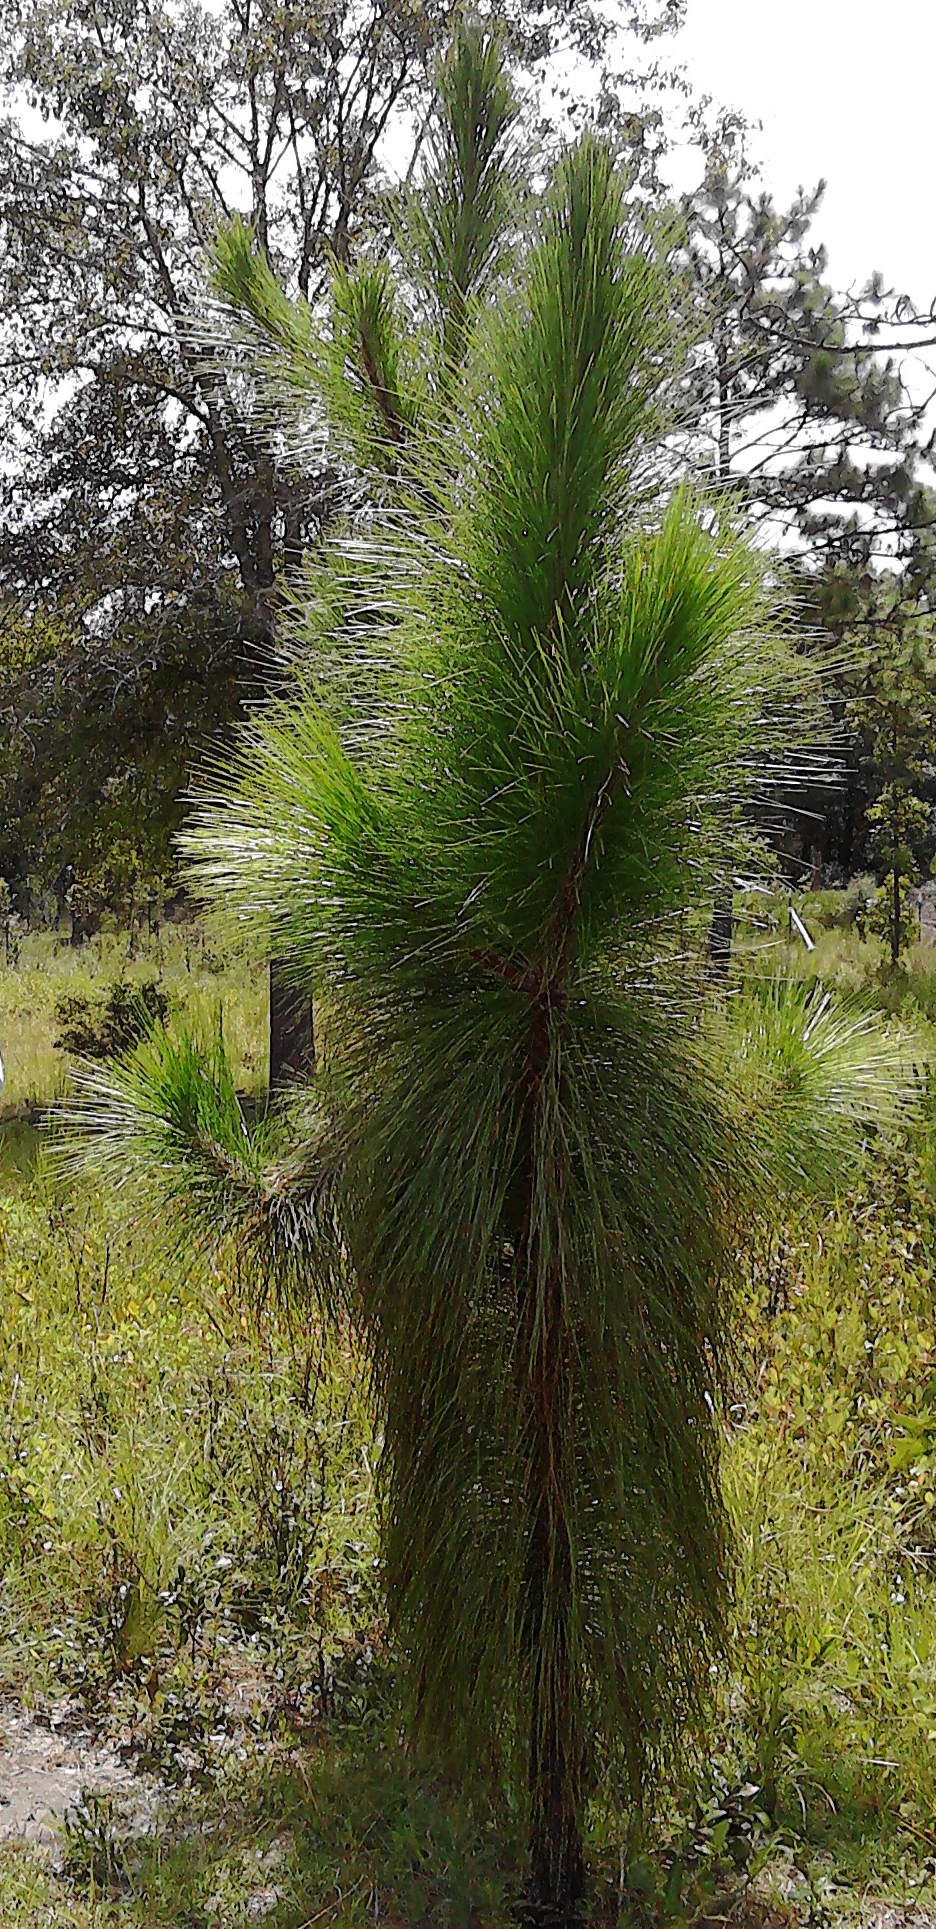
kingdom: Plantae
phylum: Tracheophyta
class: Pinopsida
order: Pinales
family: Pinaceae
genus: Pinus
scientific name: Pinus palustris
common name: Longleaf pine
